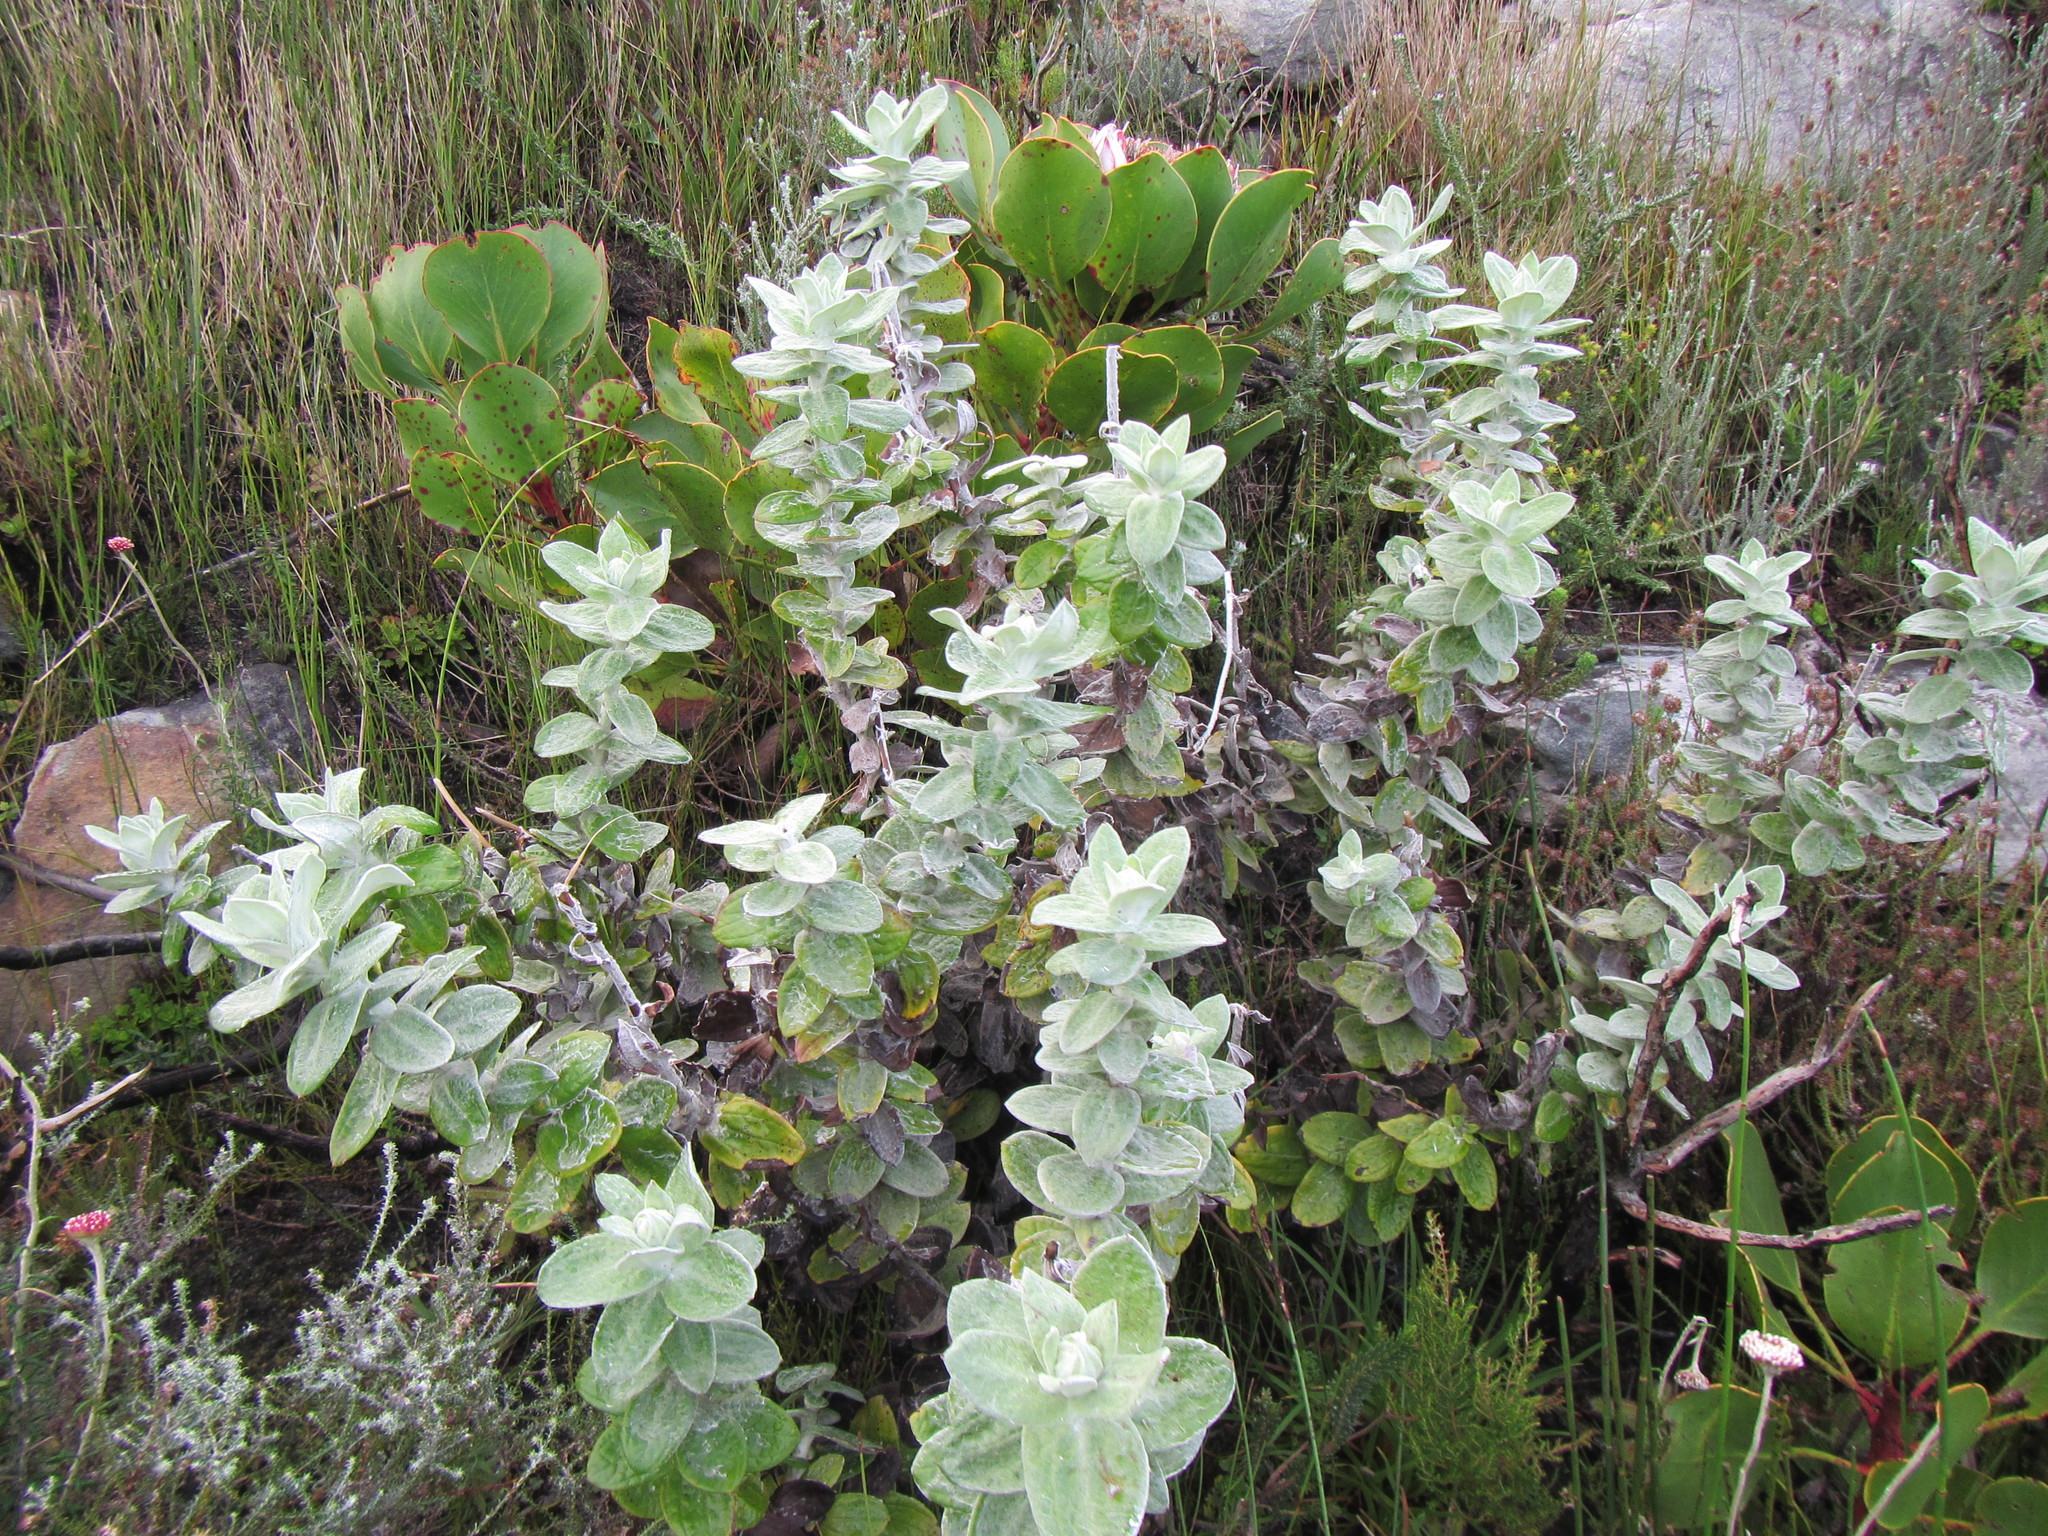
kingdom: Plantae
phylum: Tracheophyta
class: Magnoliopsida
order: Asterales
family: Asteraceae
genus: Helichrysum
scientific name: Helichrysum fruticans
